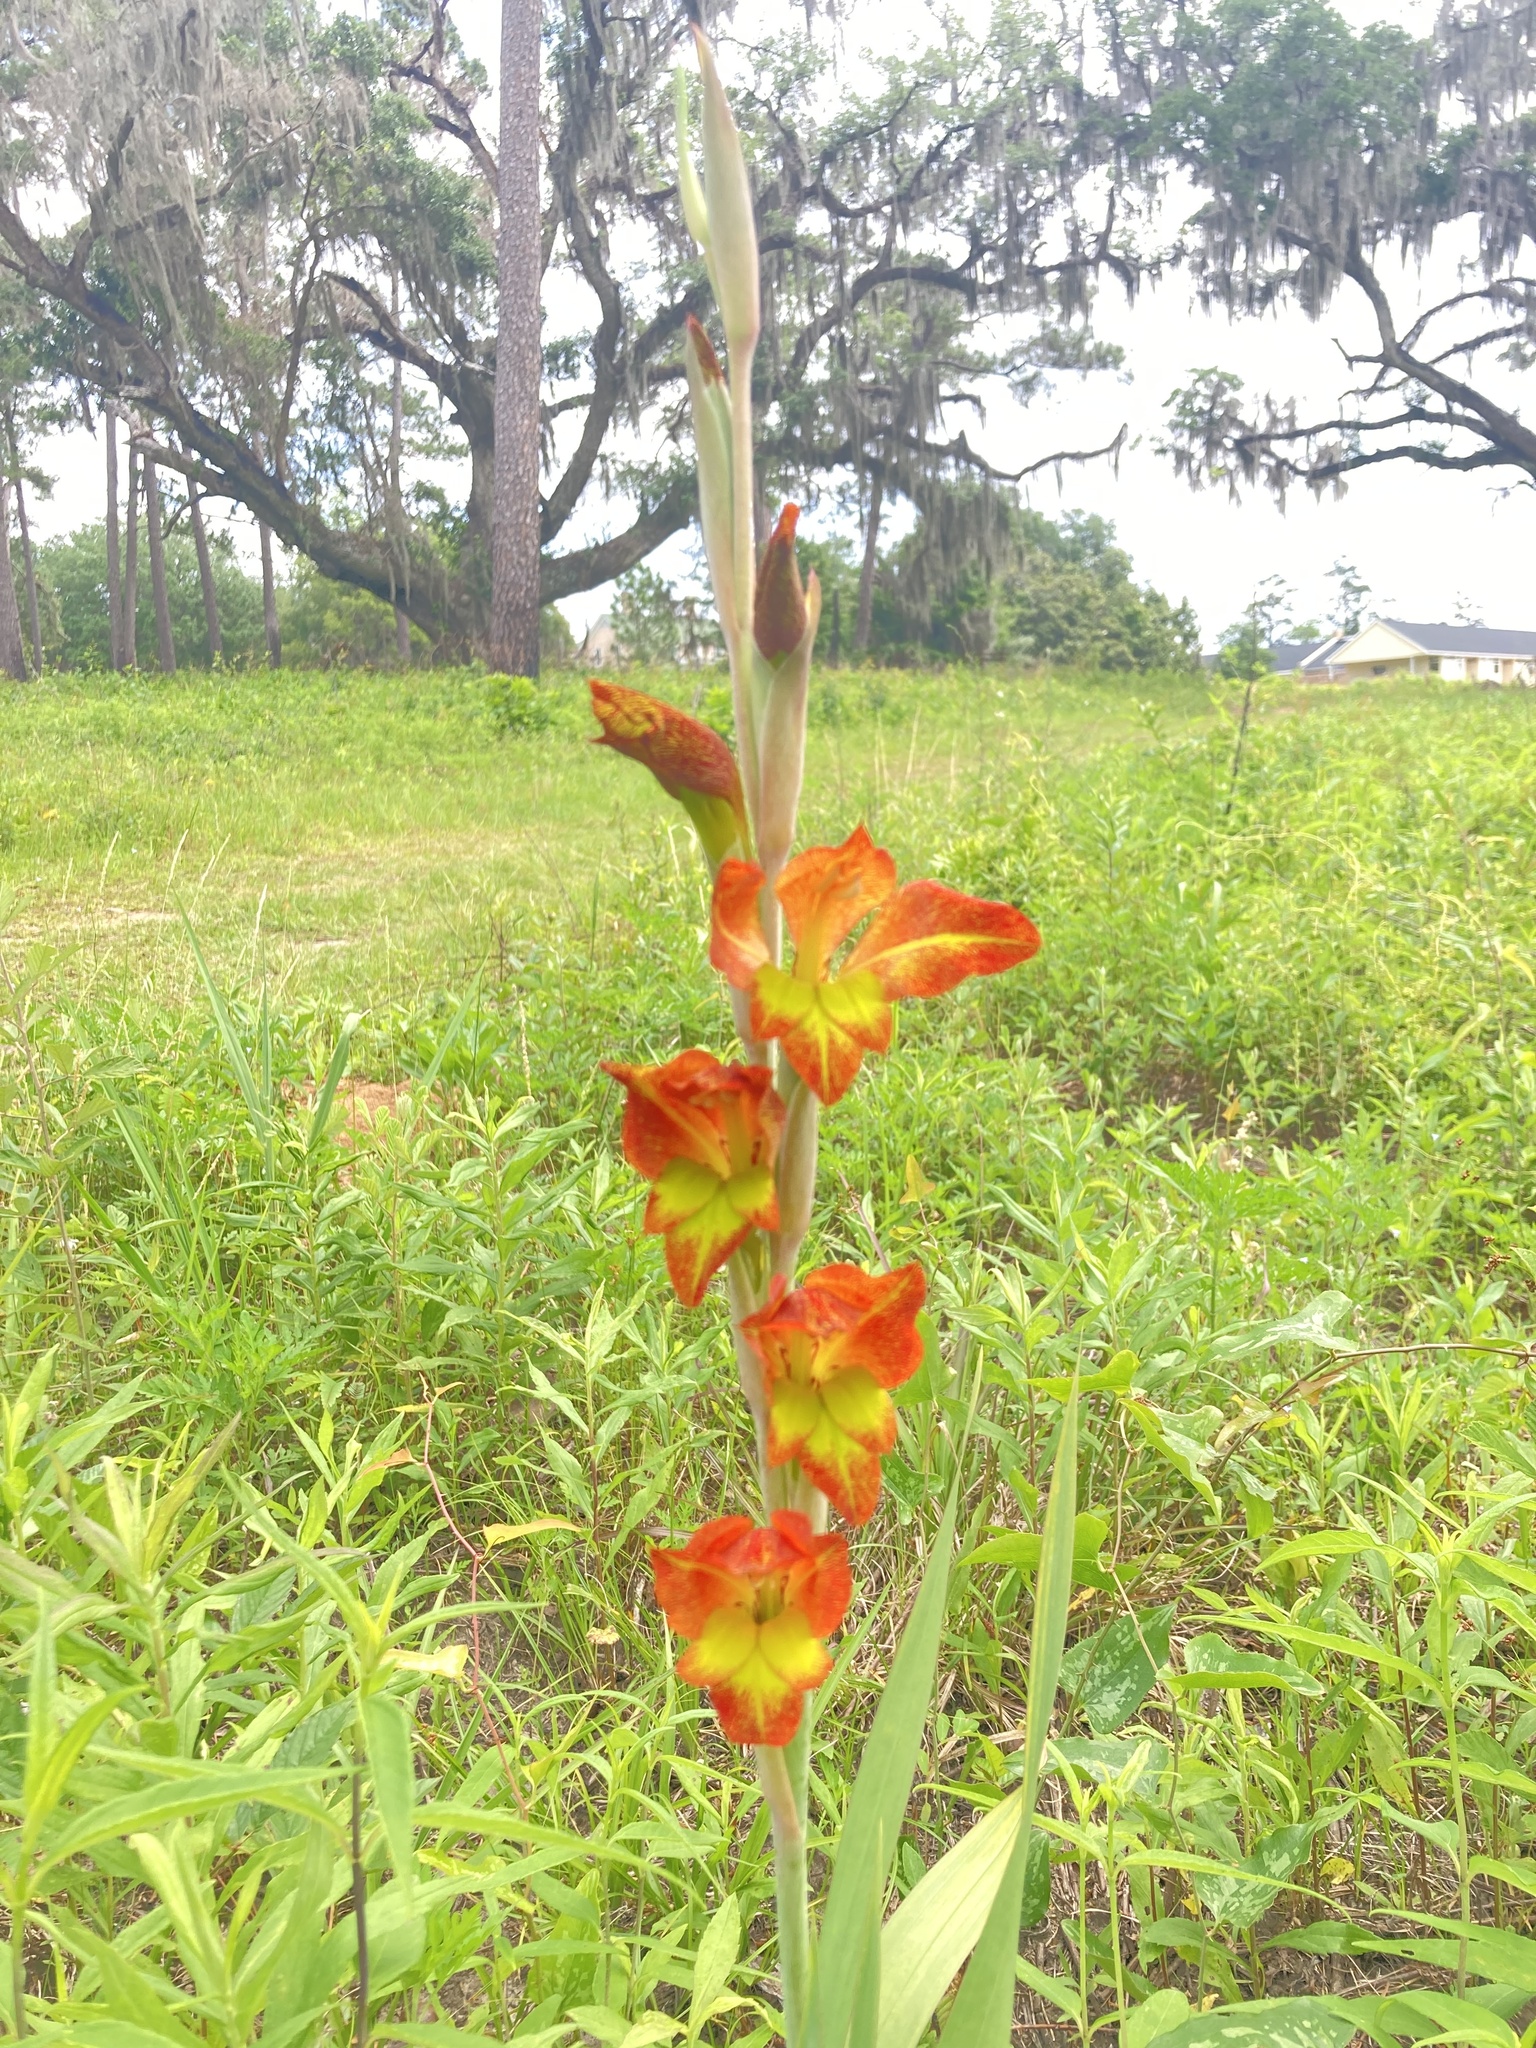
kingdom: Plantae
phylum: Tracheophyta
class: Liliopsida
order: Asparagales
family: Iridaceae
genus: Gladiolus
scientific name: Gladiolus dalenii
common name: Cornflag
